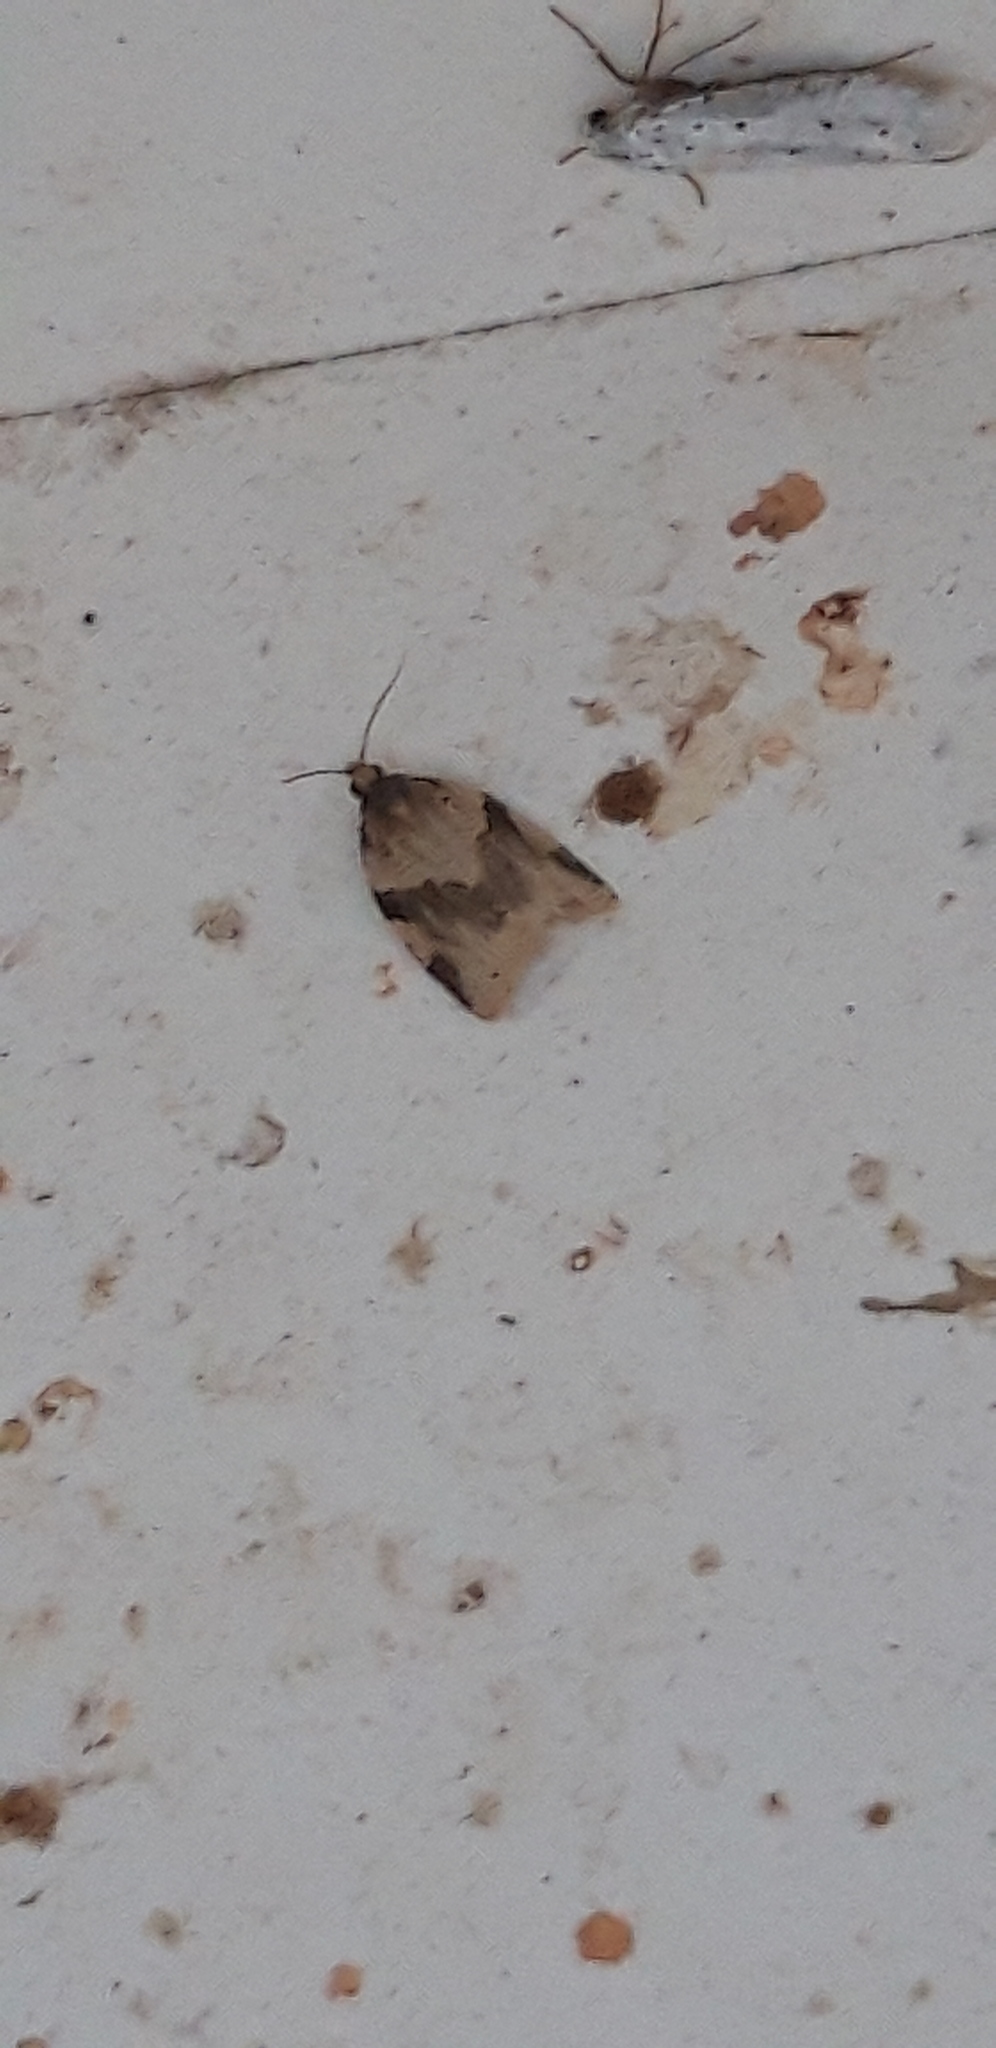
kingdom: Animalia
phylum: Arthropoda
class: Insecta
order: Lepidoptera
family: Tortricidae
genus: Clepsis
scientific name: Clepsis spectrana
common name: Cyclamen tortrix
